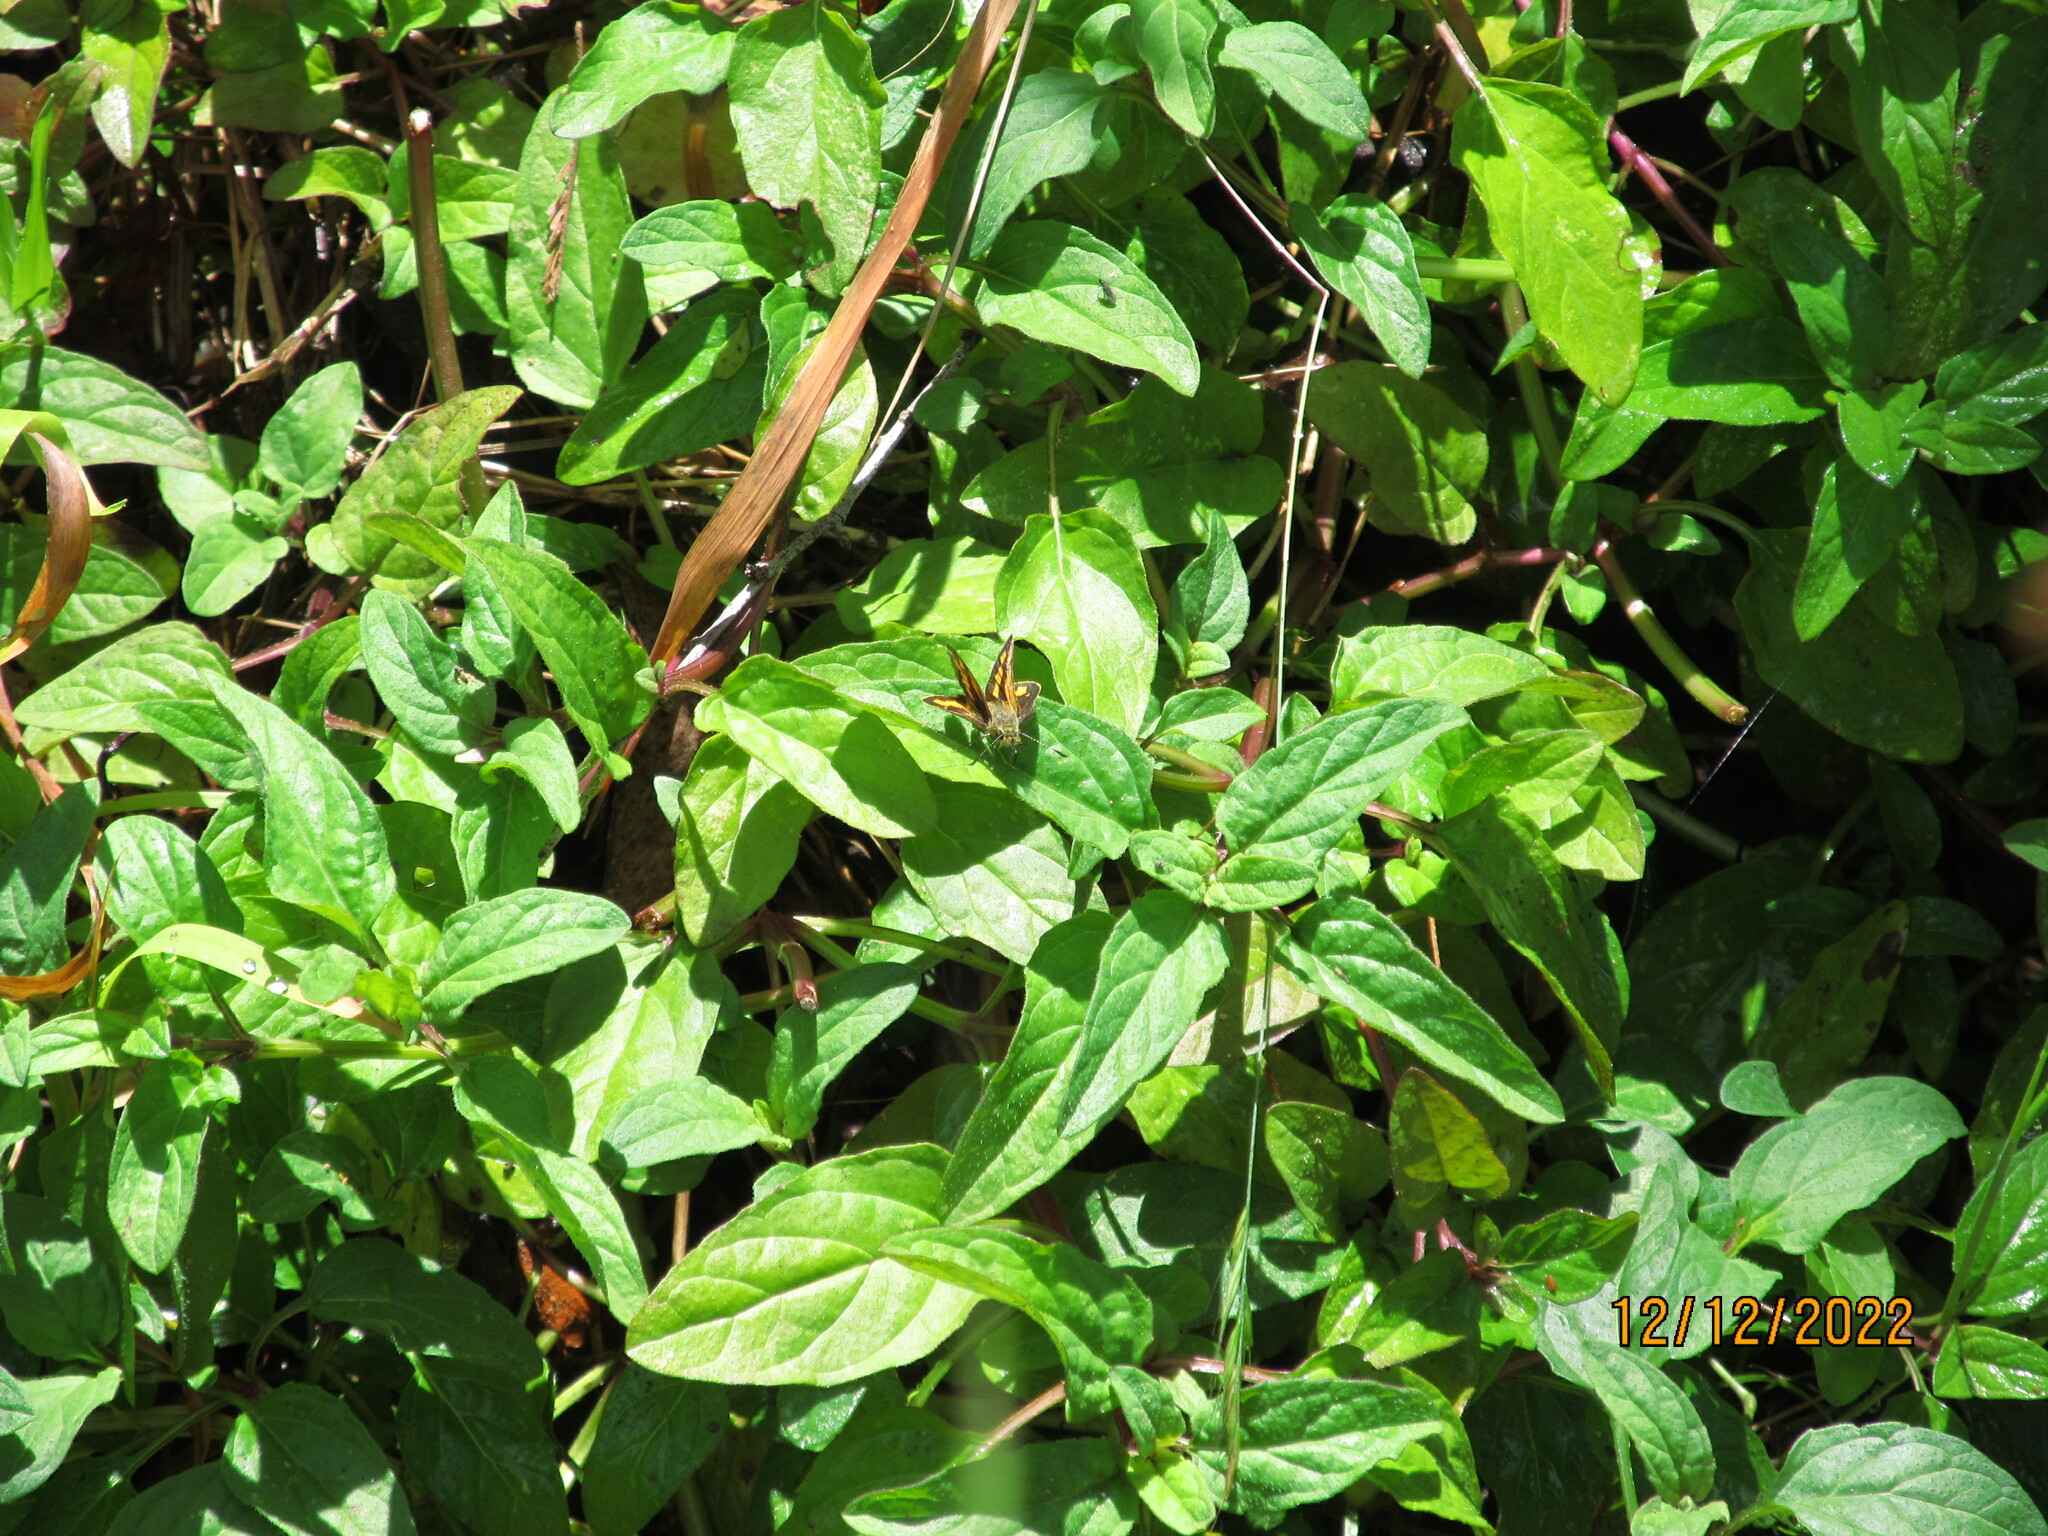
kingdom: Animalia
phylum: Arthropoda
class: Insecta
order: Lepidoptera
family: Hesperiidae
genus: Ocybadistes
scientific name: Ocybadistes walkeri
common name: Yellow-banded dart
